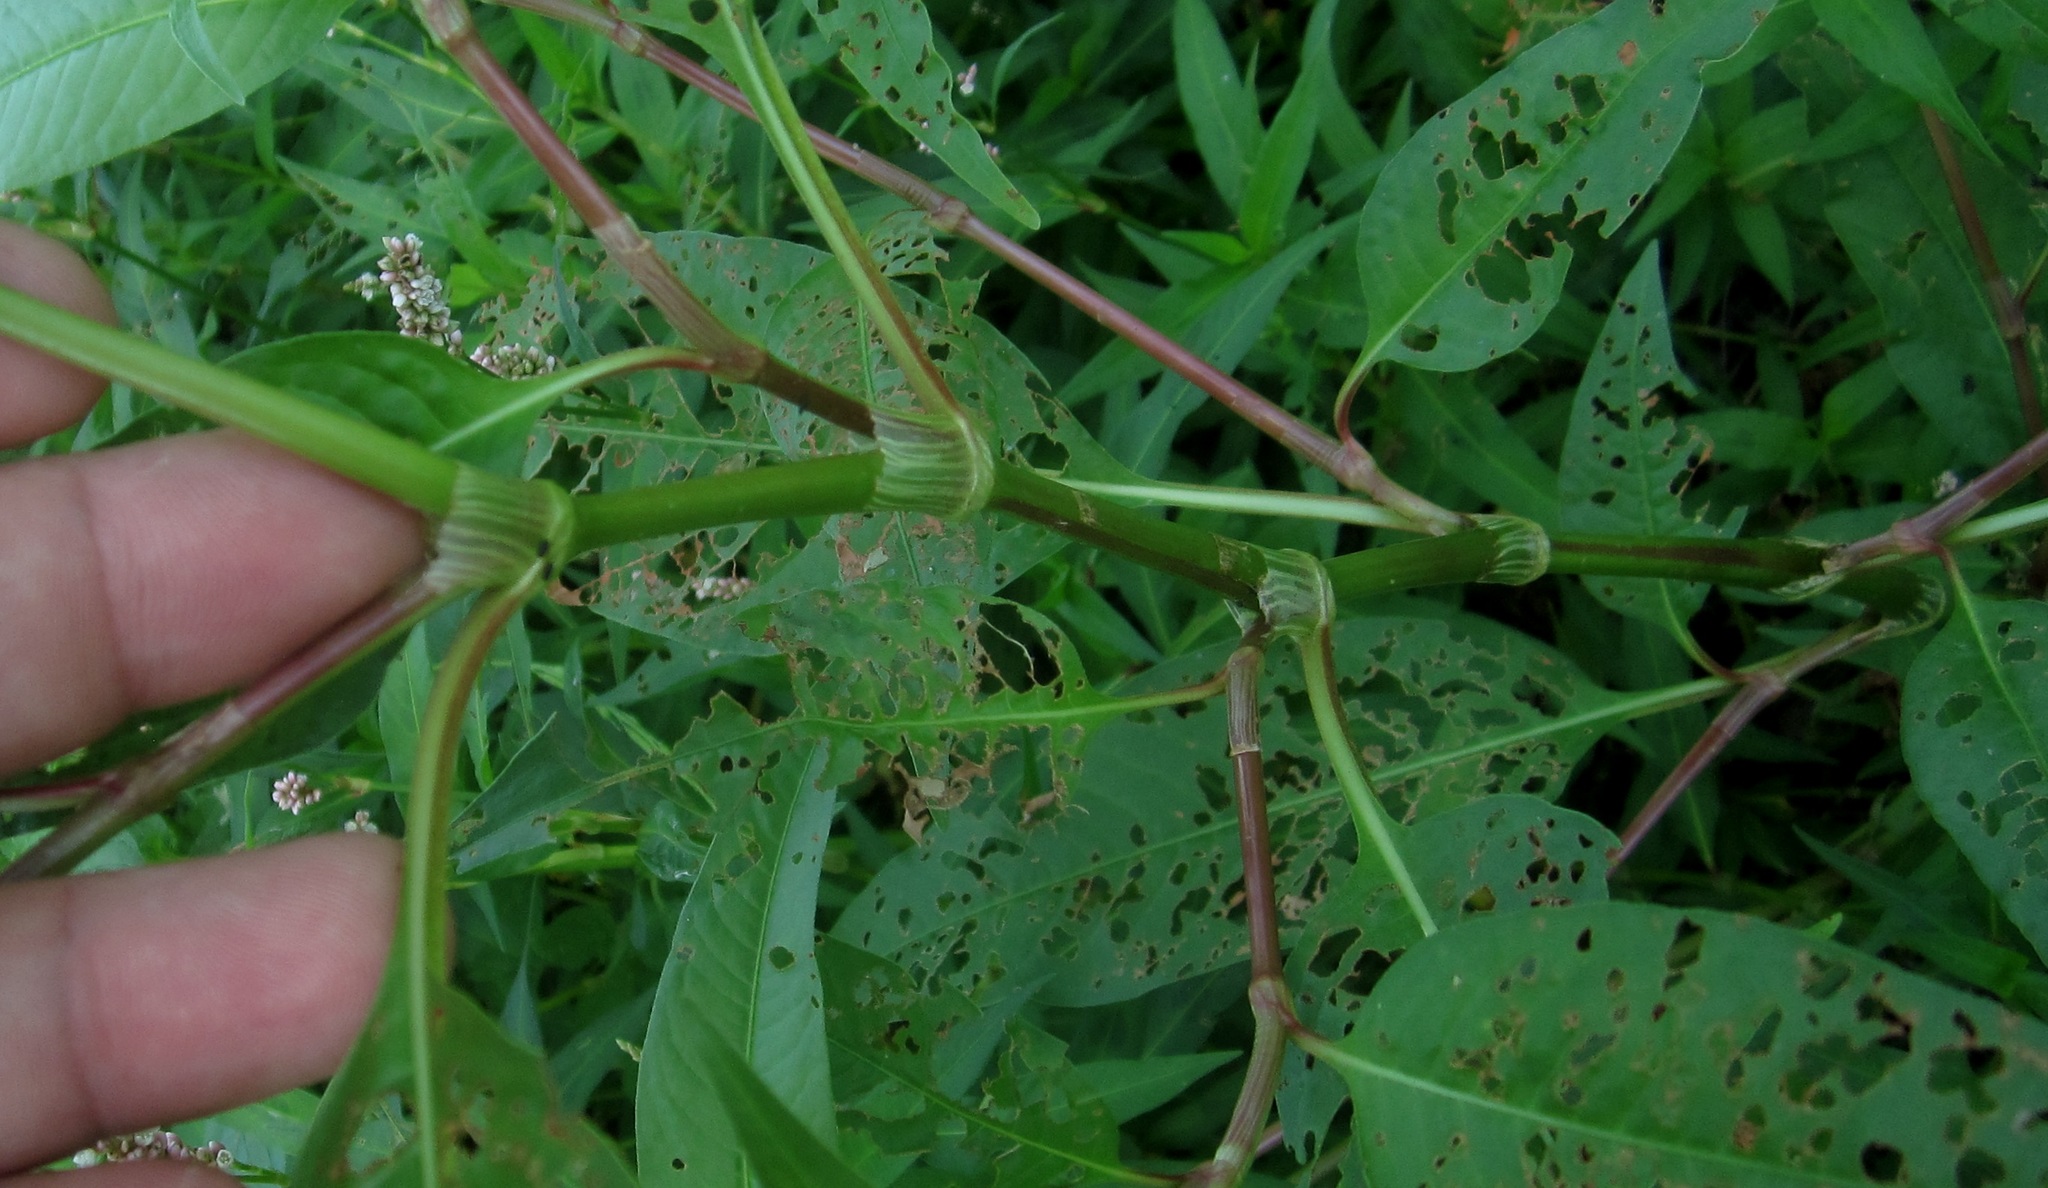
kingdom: Plantae
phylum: Tracheophyta
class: Magnoliopsida
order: Caryophyllales
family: Polygonaceae
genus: Persicaria
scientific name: Persicaria lapathifolia
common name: Curlytop knotweed
